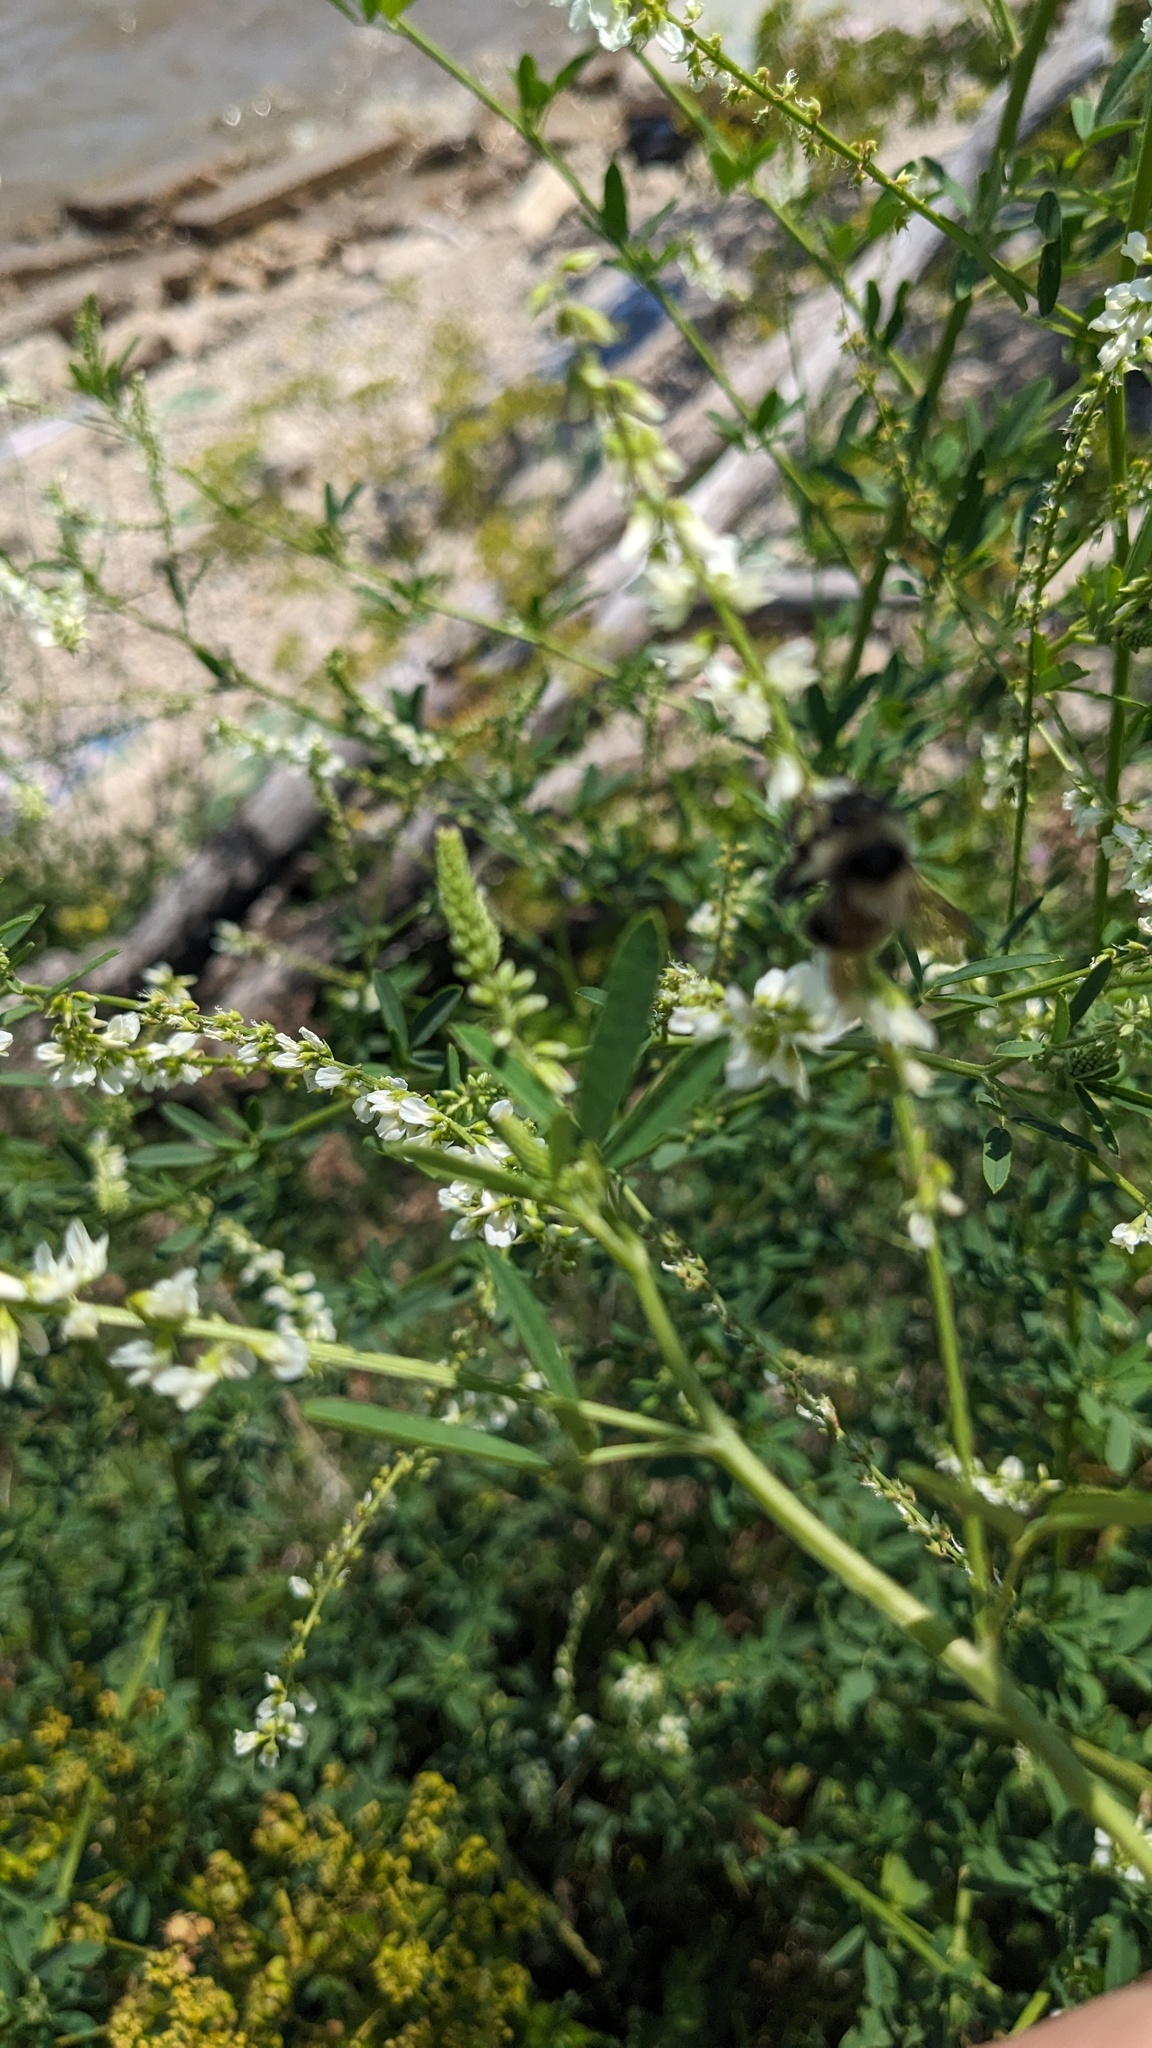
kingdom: Animalia
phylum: Arthropoda
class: Insecta
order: Hymenoptera
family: Apidae
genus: Bombus
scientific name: Bombus rufocinctus
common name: Red-belted bumble bee
